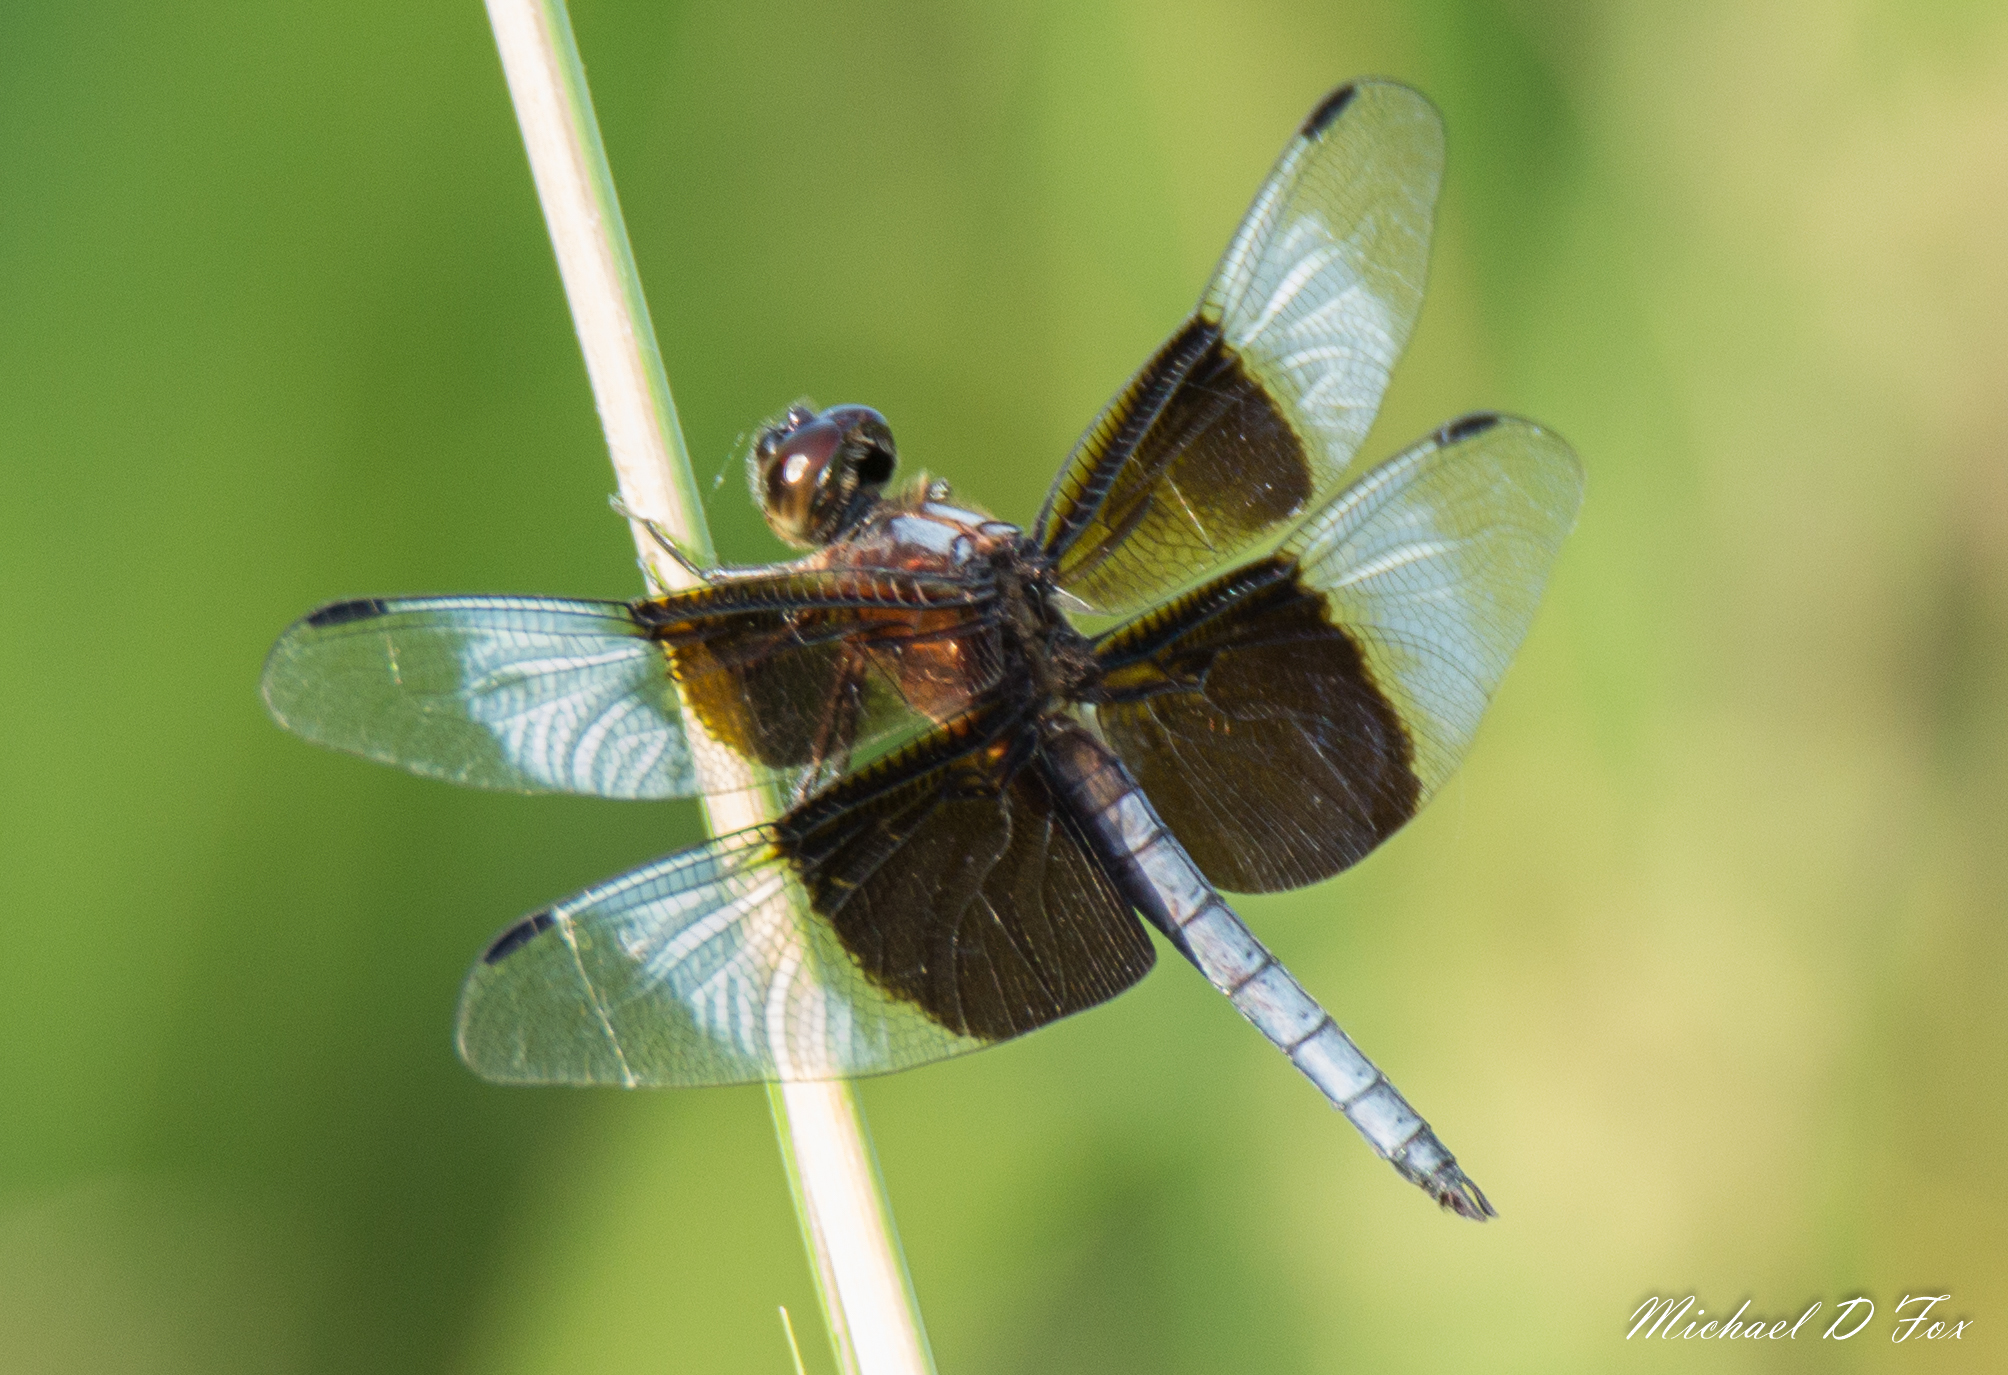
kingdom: Animalia
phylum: Arthropoda
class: Insecta
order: Odonata
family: Libellulidae
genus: Libellula
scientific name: Libellula luctuosa
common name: Widow skimmer
